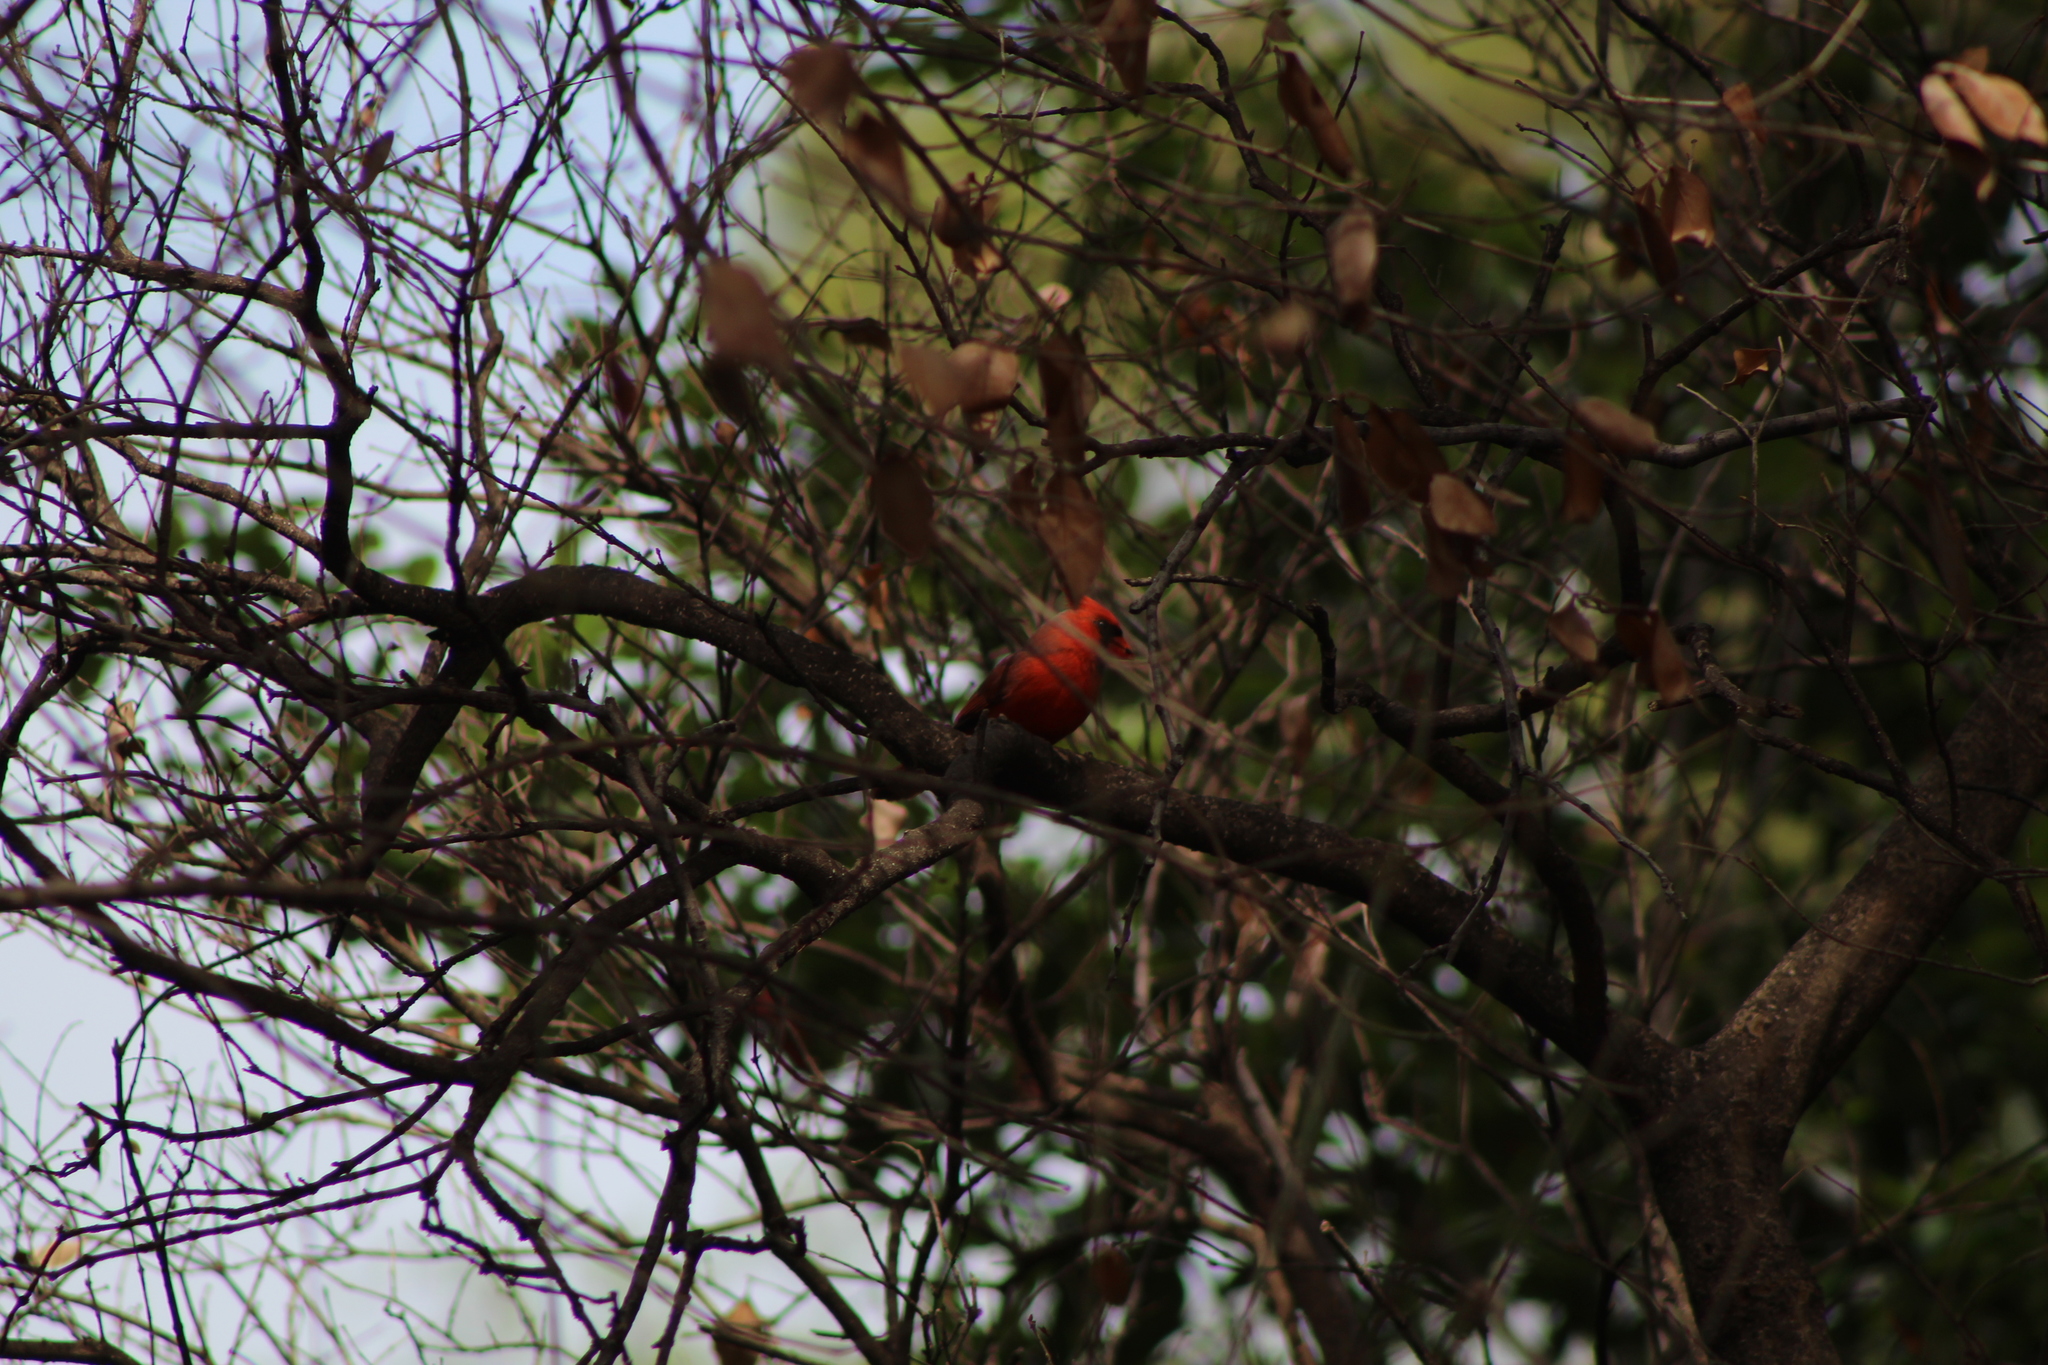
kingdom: Animalia
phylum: Chordata
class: Aves
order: Passeriformes
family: Cardinalidae
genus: Cardinalis
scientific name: Cardinalis cardinalis
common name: Northern cardinal
